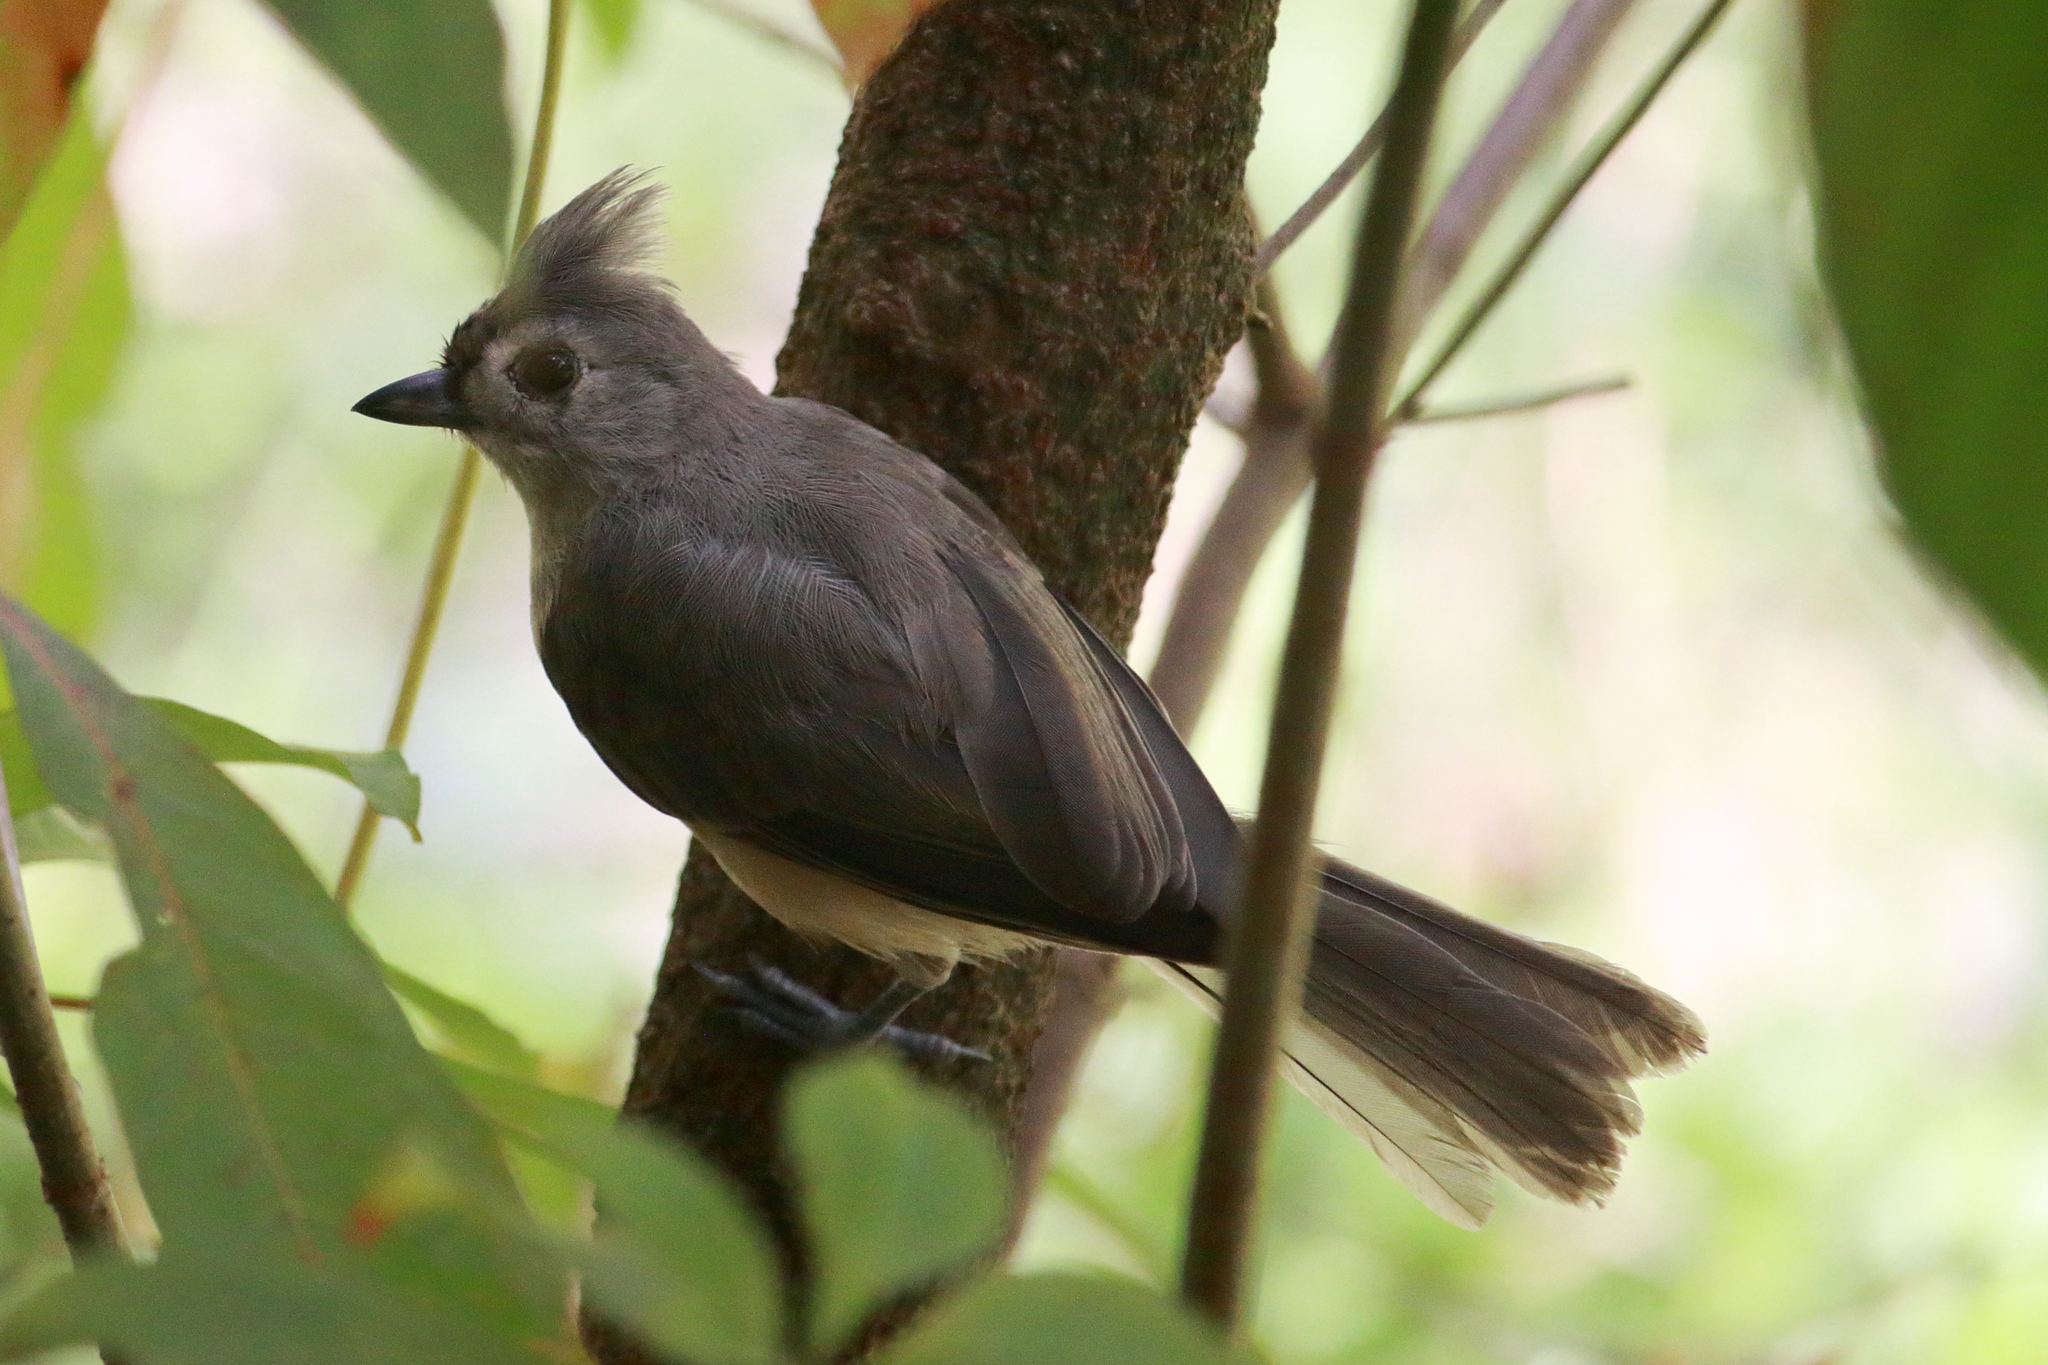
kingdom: Animalia
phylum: Chordata
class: Aves
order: Passeriformes
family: Paridae
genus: Baeolophus
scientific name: Baeolophus bicolor
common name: Tufted titmouse
